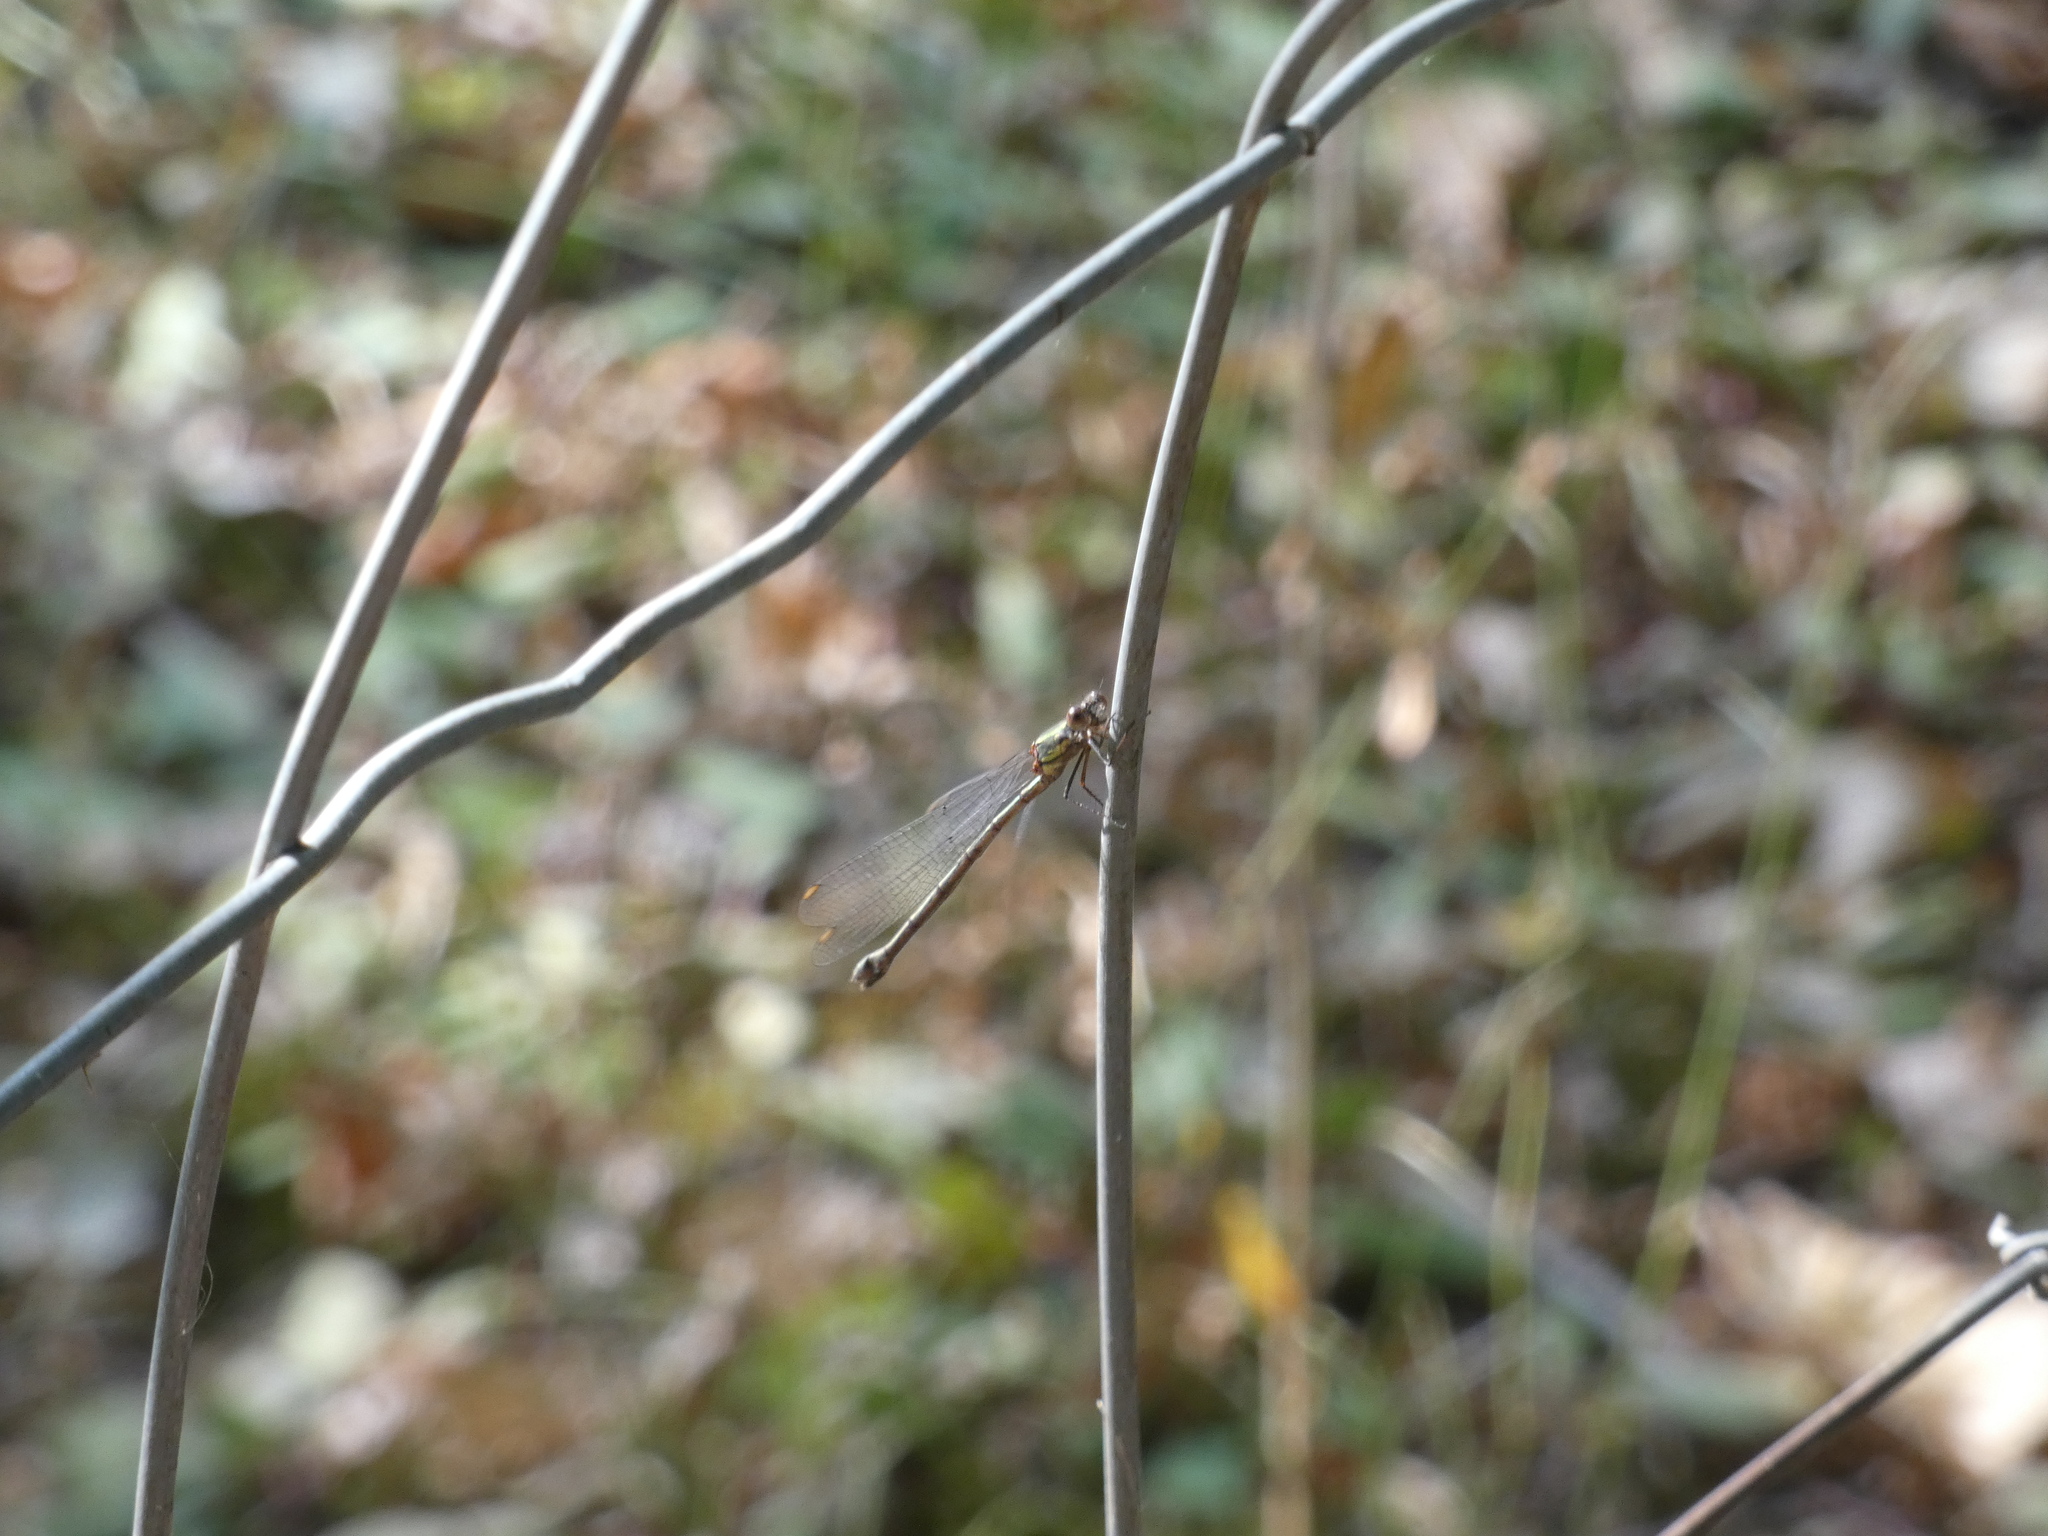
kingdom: Animalia
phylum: Arthropoda
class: Insecta
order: Odonata
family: Lestidae
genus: Chalcolestes
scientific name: Chalcolestes viridis
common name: Green emerald damselfly
